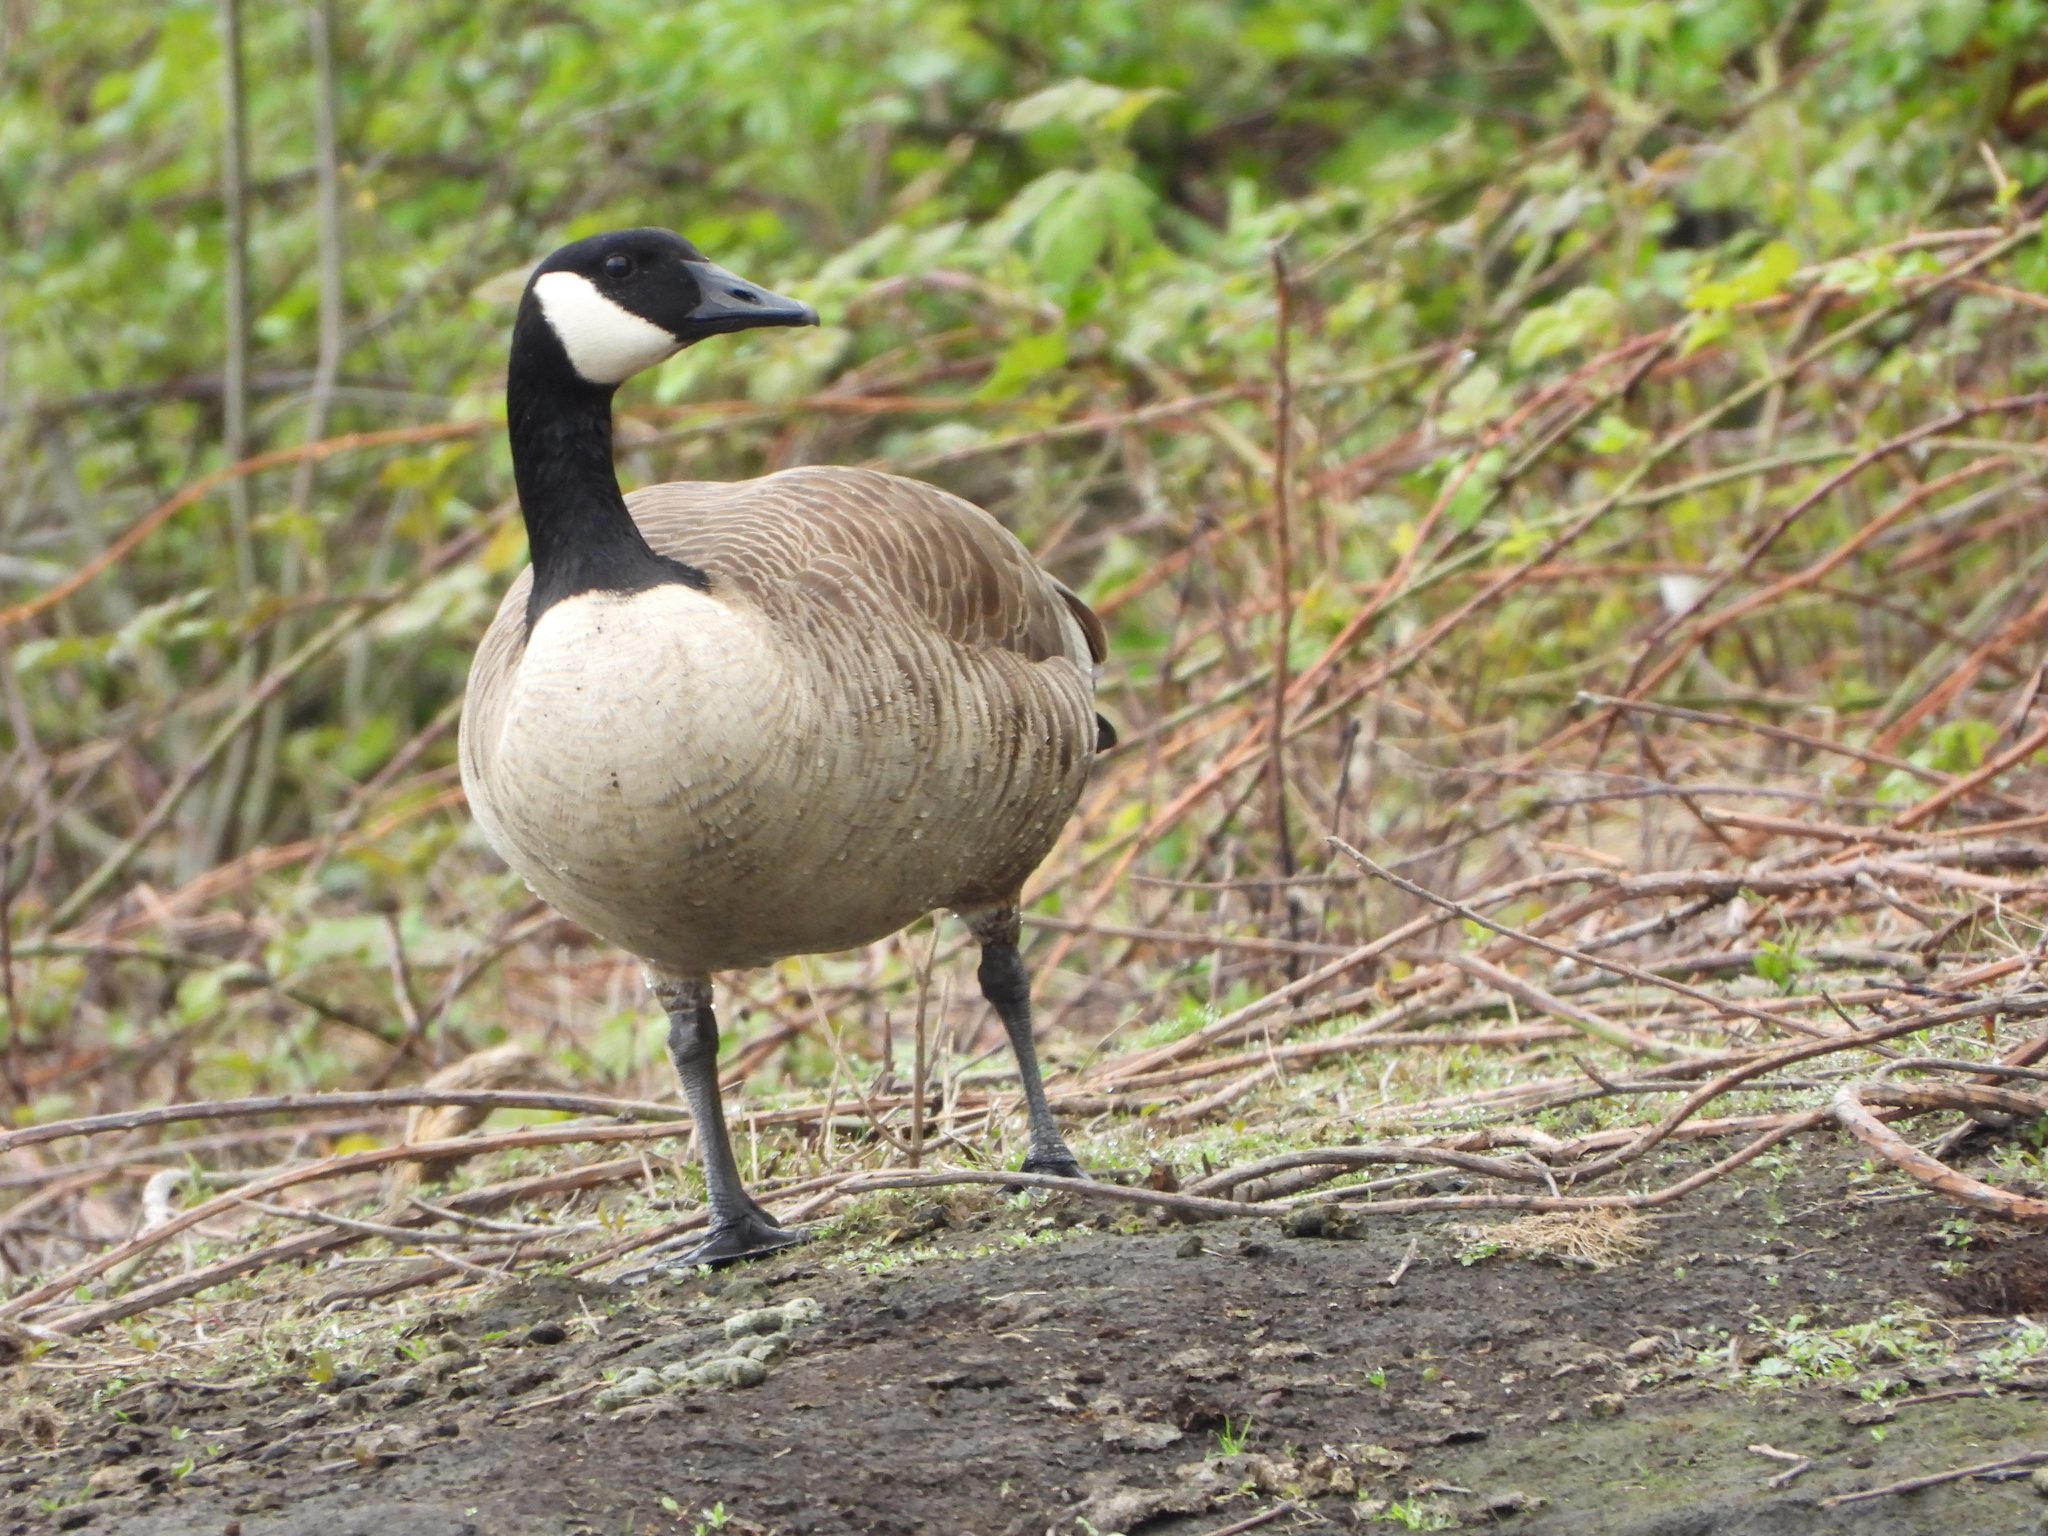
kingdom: Animalia
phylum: Chordata
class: Aves
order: Anseriformes
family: Anatidae
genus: Branta
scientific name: Branta canadensis
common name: Canada goose
